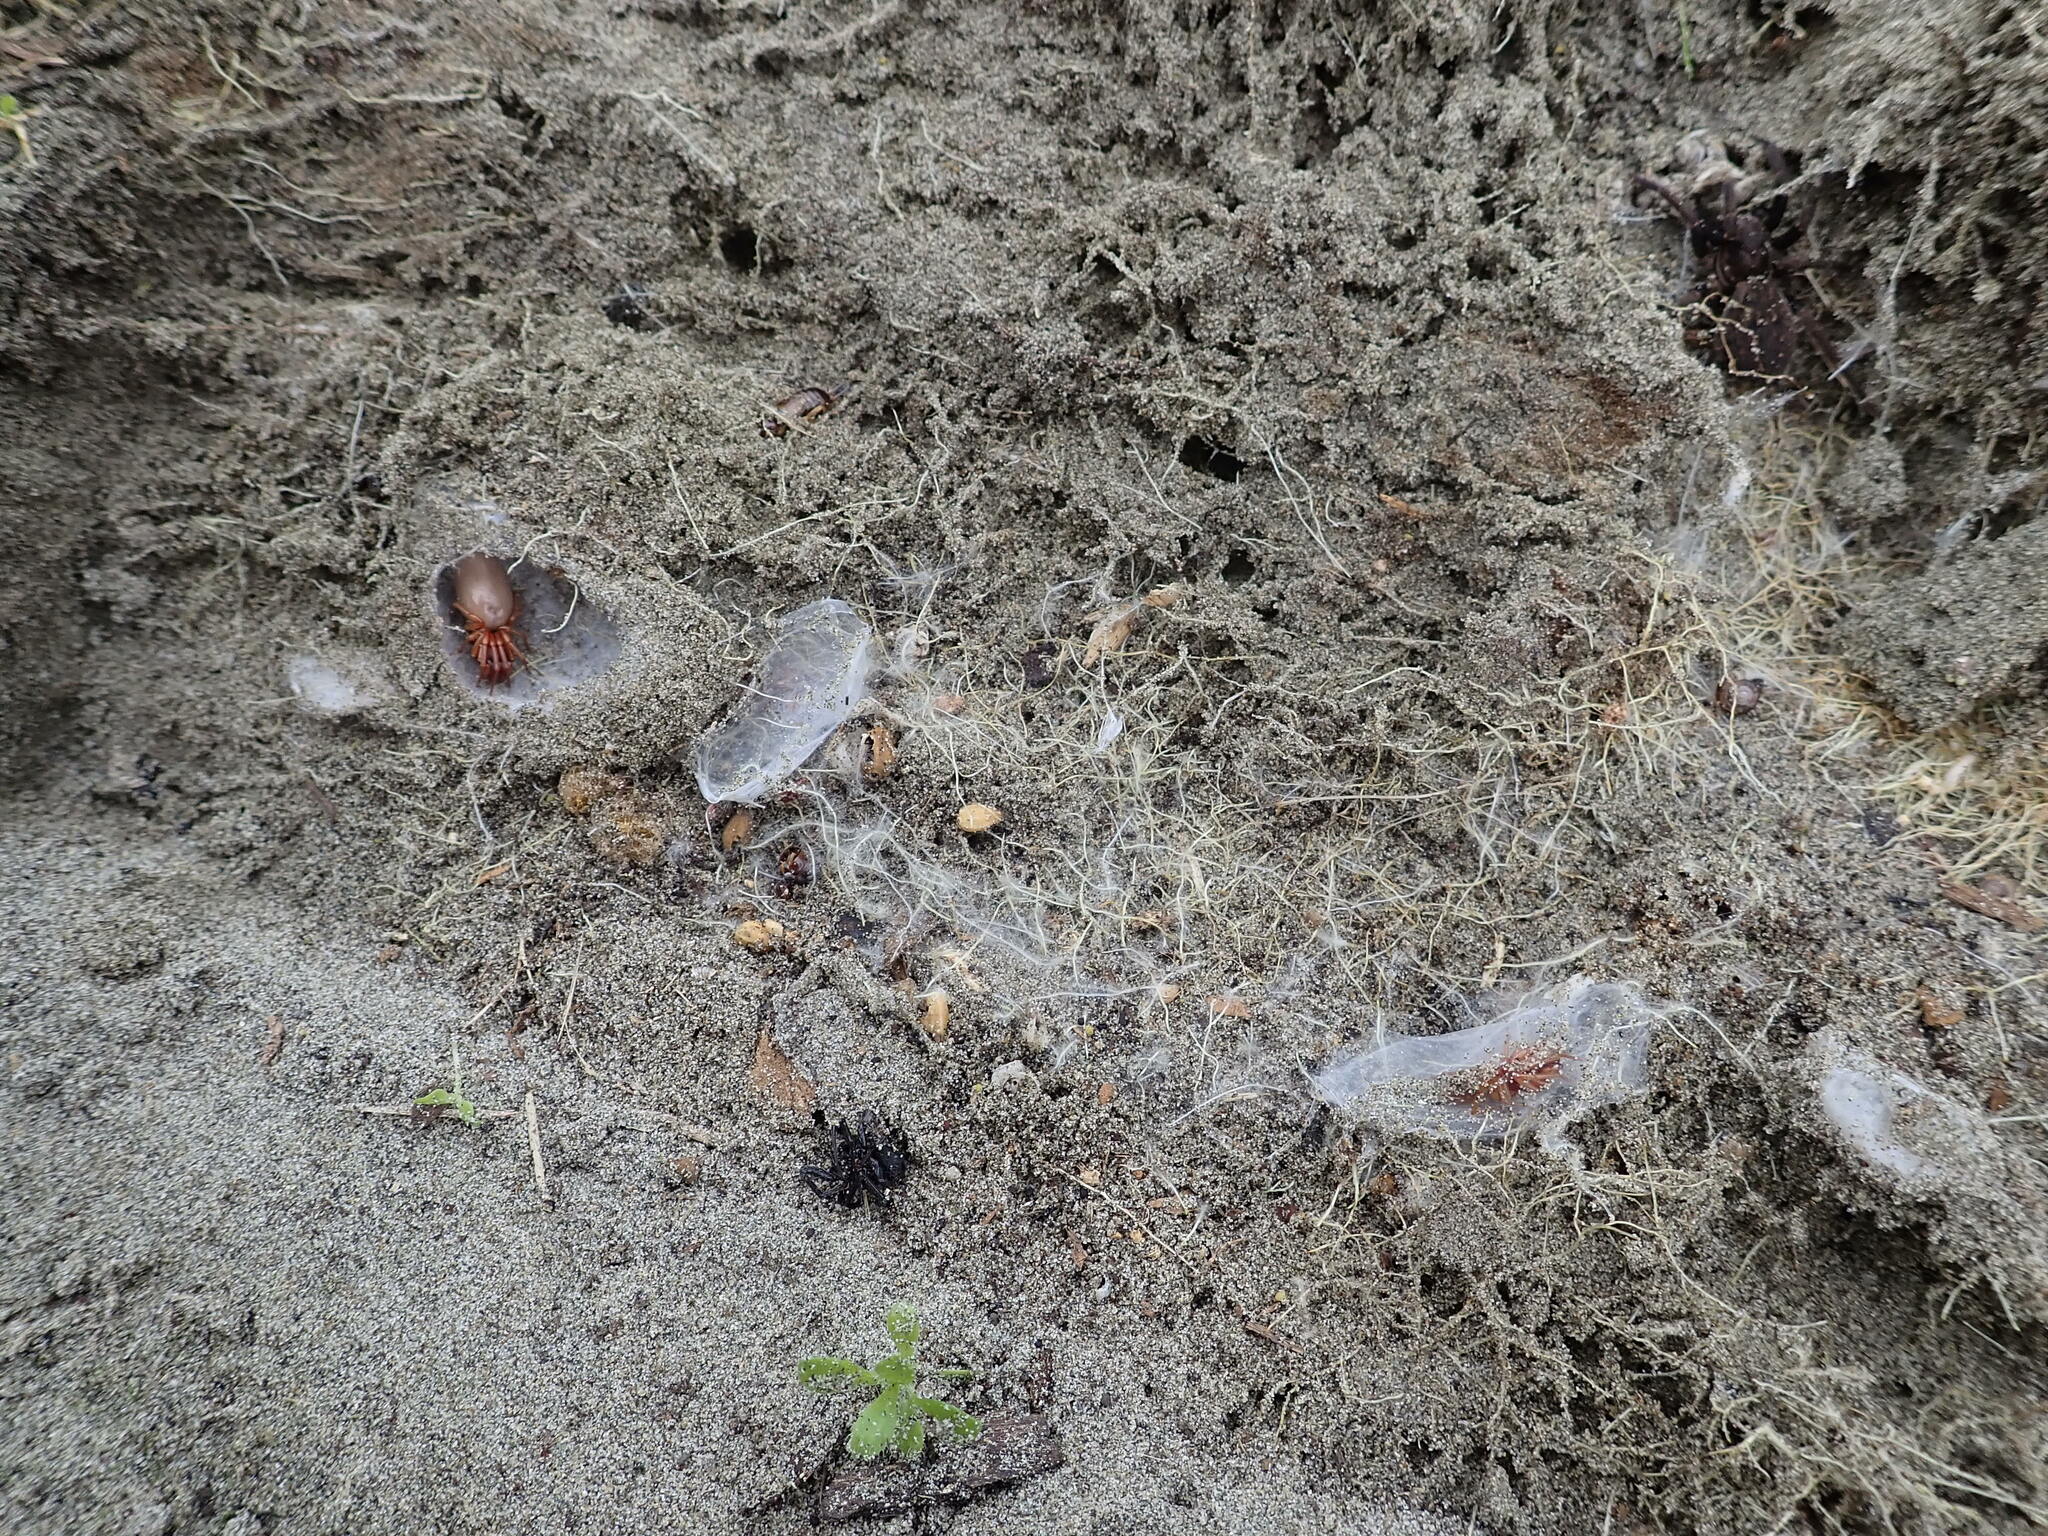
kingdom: Animalia
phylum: Arthropoda
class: Arachnida
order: Araneae
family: Dysderidae
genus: Dysdera
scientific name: Dysdera crocata
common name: Woodlouse spider
